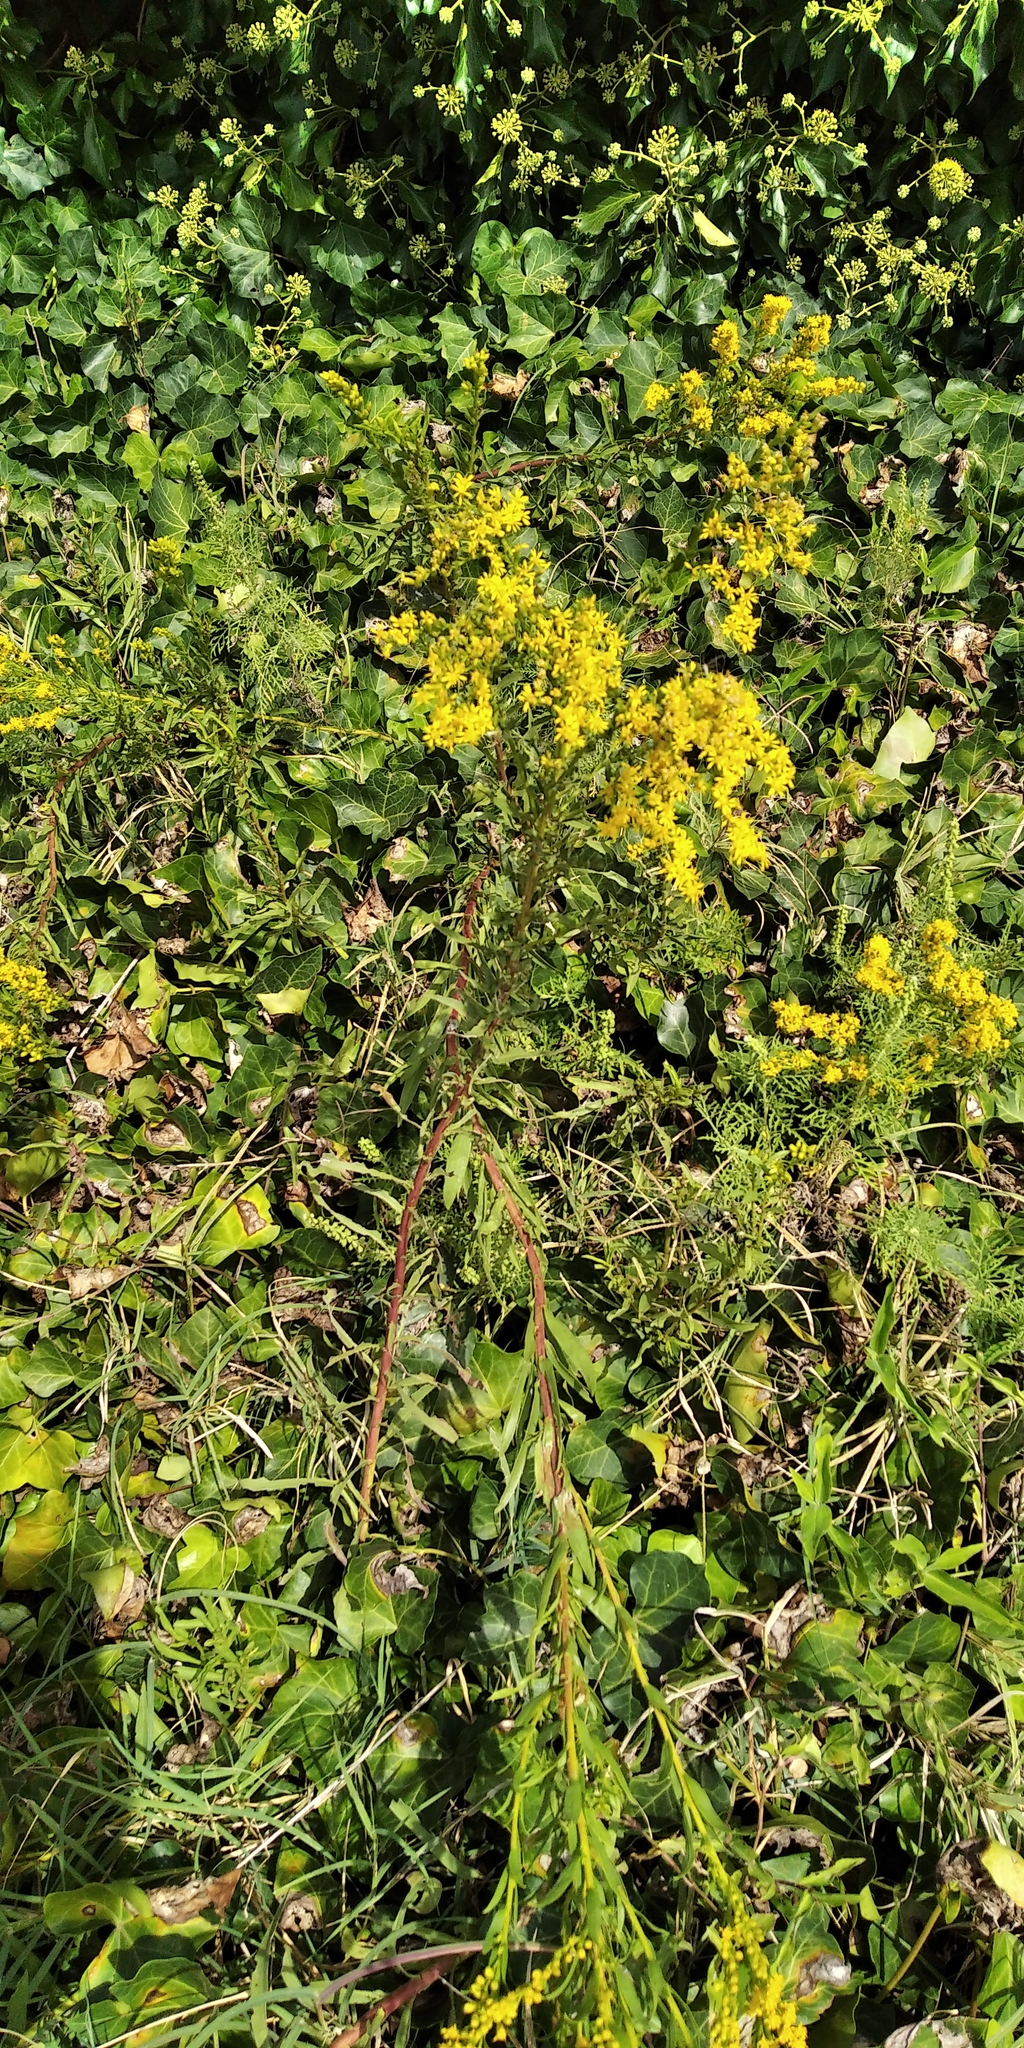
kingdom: Plantae
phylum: Tracheophyta
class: Magnoliopsida
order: Asterales
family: Asteraceae
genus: Solidago
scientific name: Solidago chilensis
